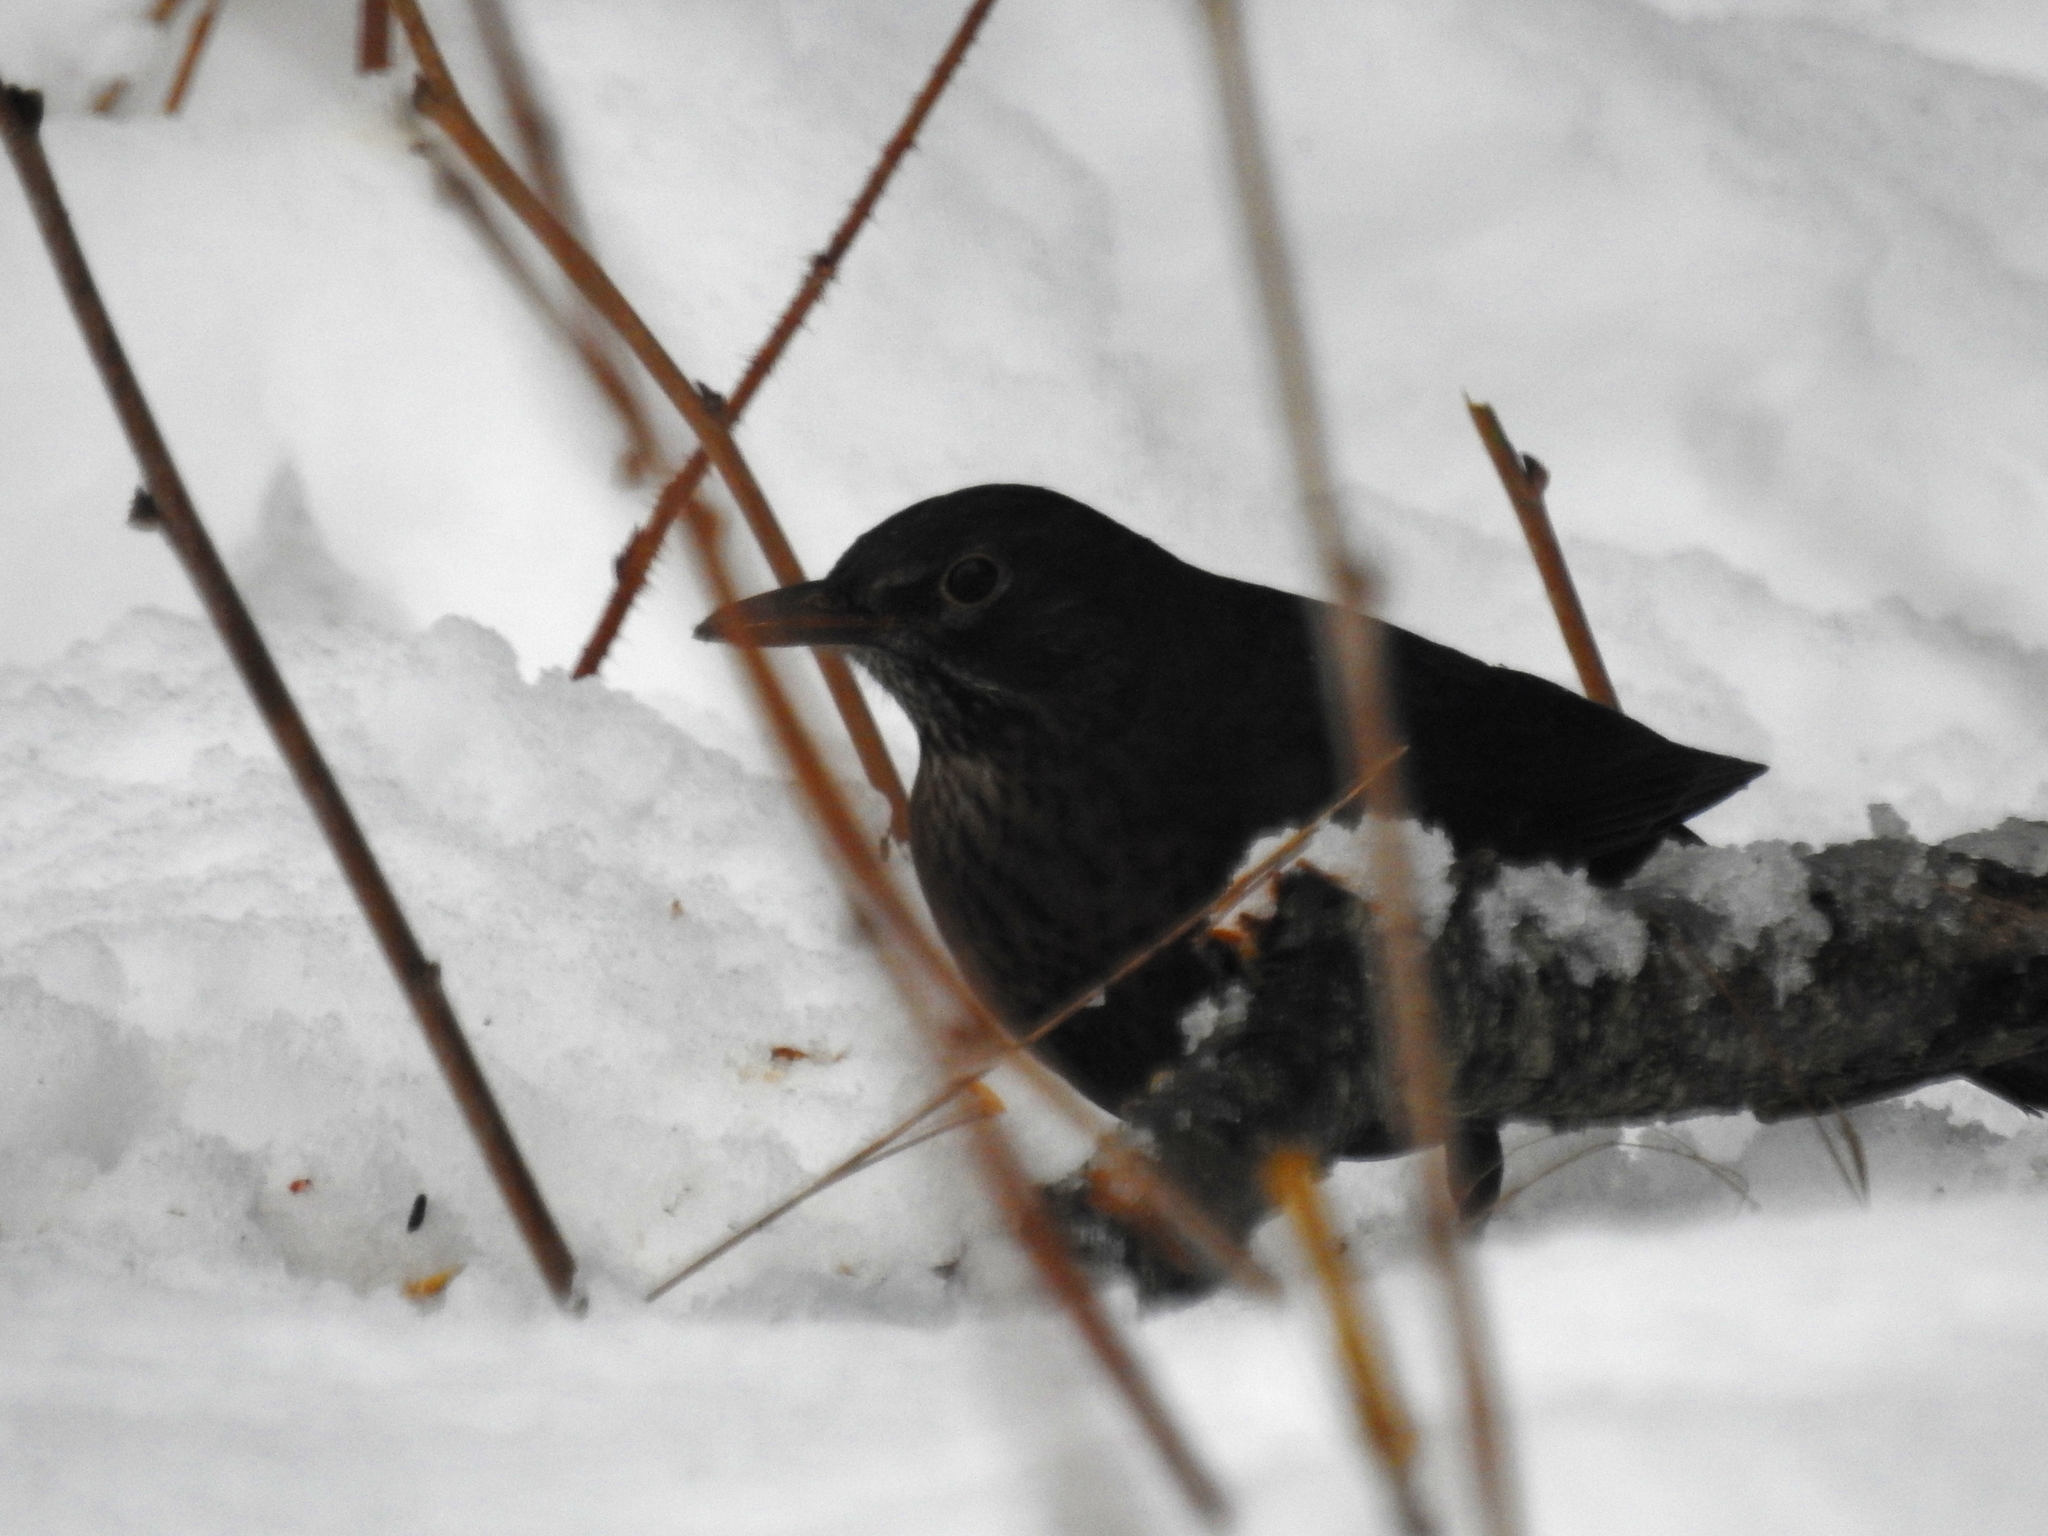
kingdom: Animalia
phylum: Chordata
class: Aves
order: Passeriformes
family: Turdidae
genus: Turdus
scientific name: Turdus merula
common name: Common blackbird
